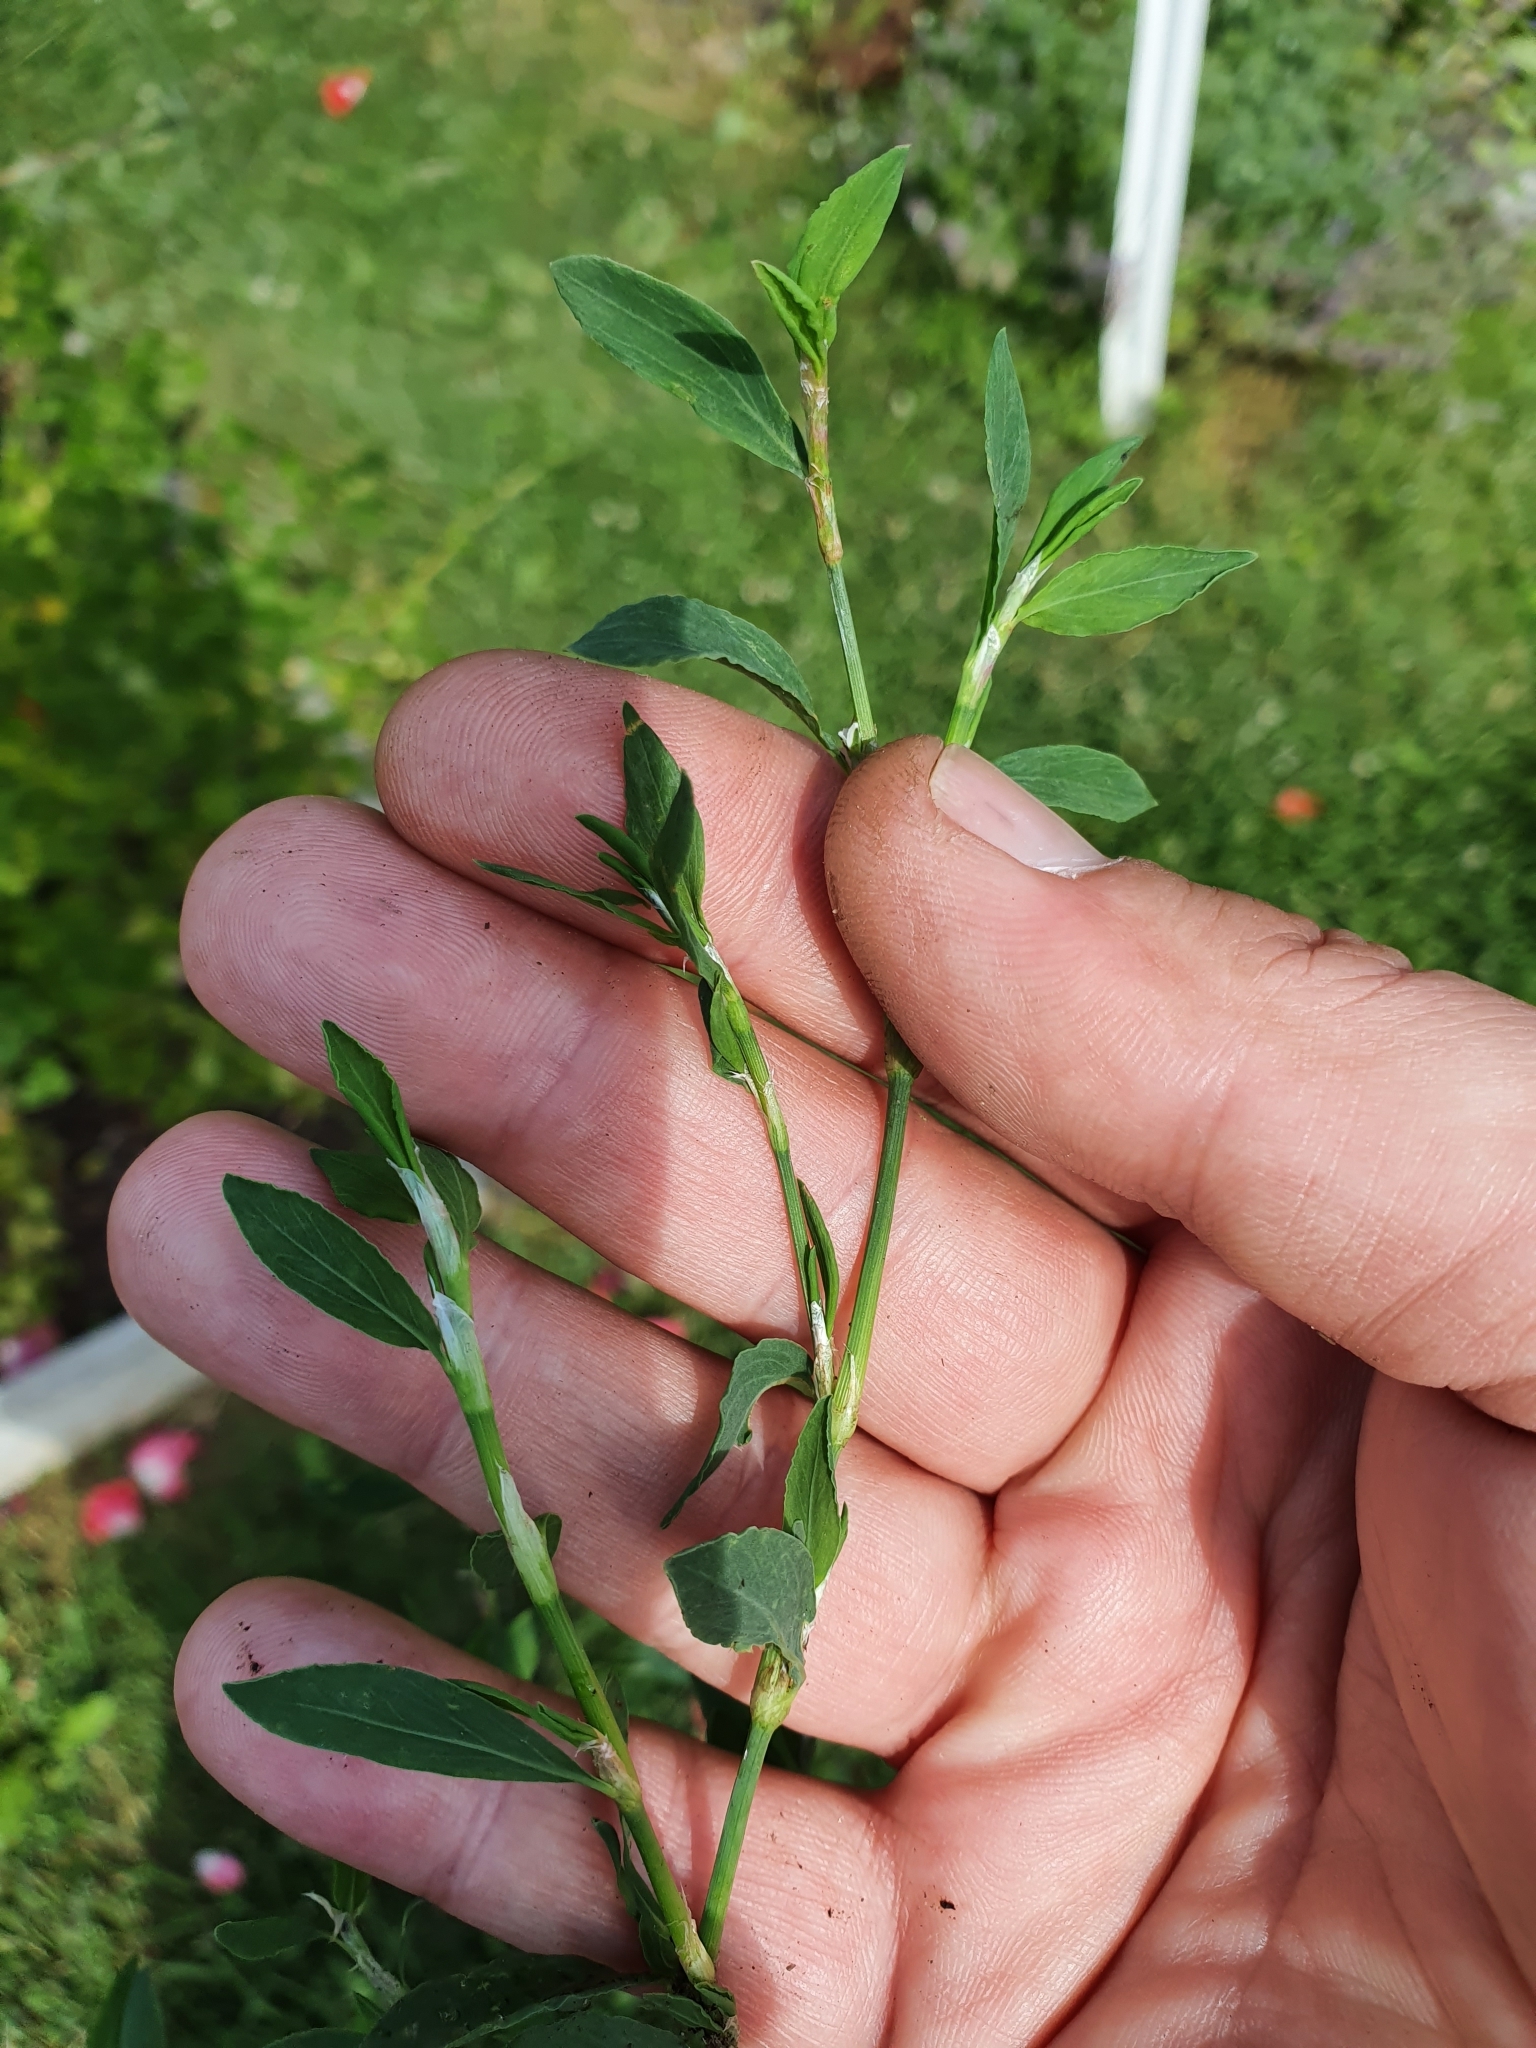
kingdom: Plantae
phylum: Tracheophyta
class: Magnoliopsida
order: Caryophyllales
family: Polygonaceae
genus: Polygonum
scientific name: Polygonum aviculare
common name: Prostrate knotweed
